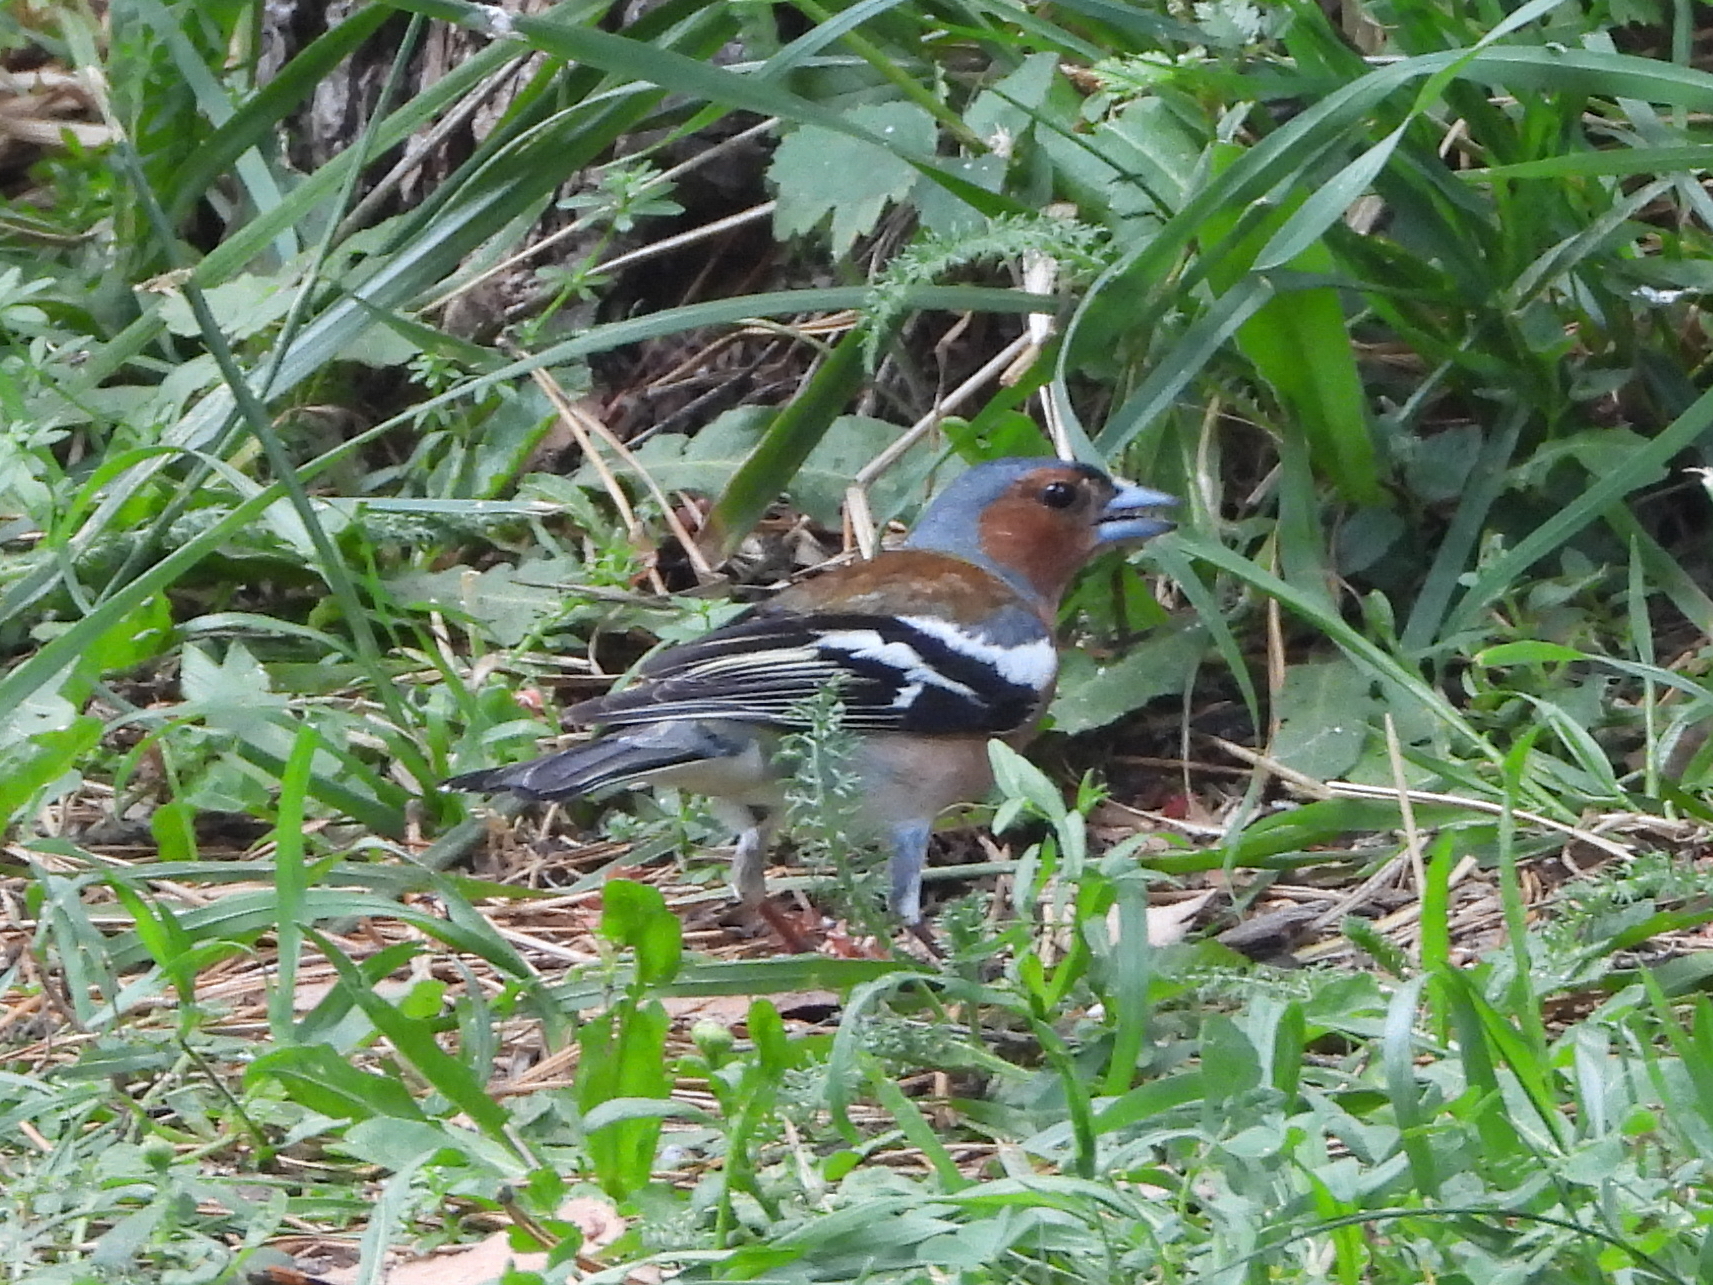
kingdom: Animalia
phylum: Chordata
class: Aves
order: Passeriformes
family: Fringillidae
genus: Fringilla
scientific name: Fringilla coelebs
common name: Common chaffinch
